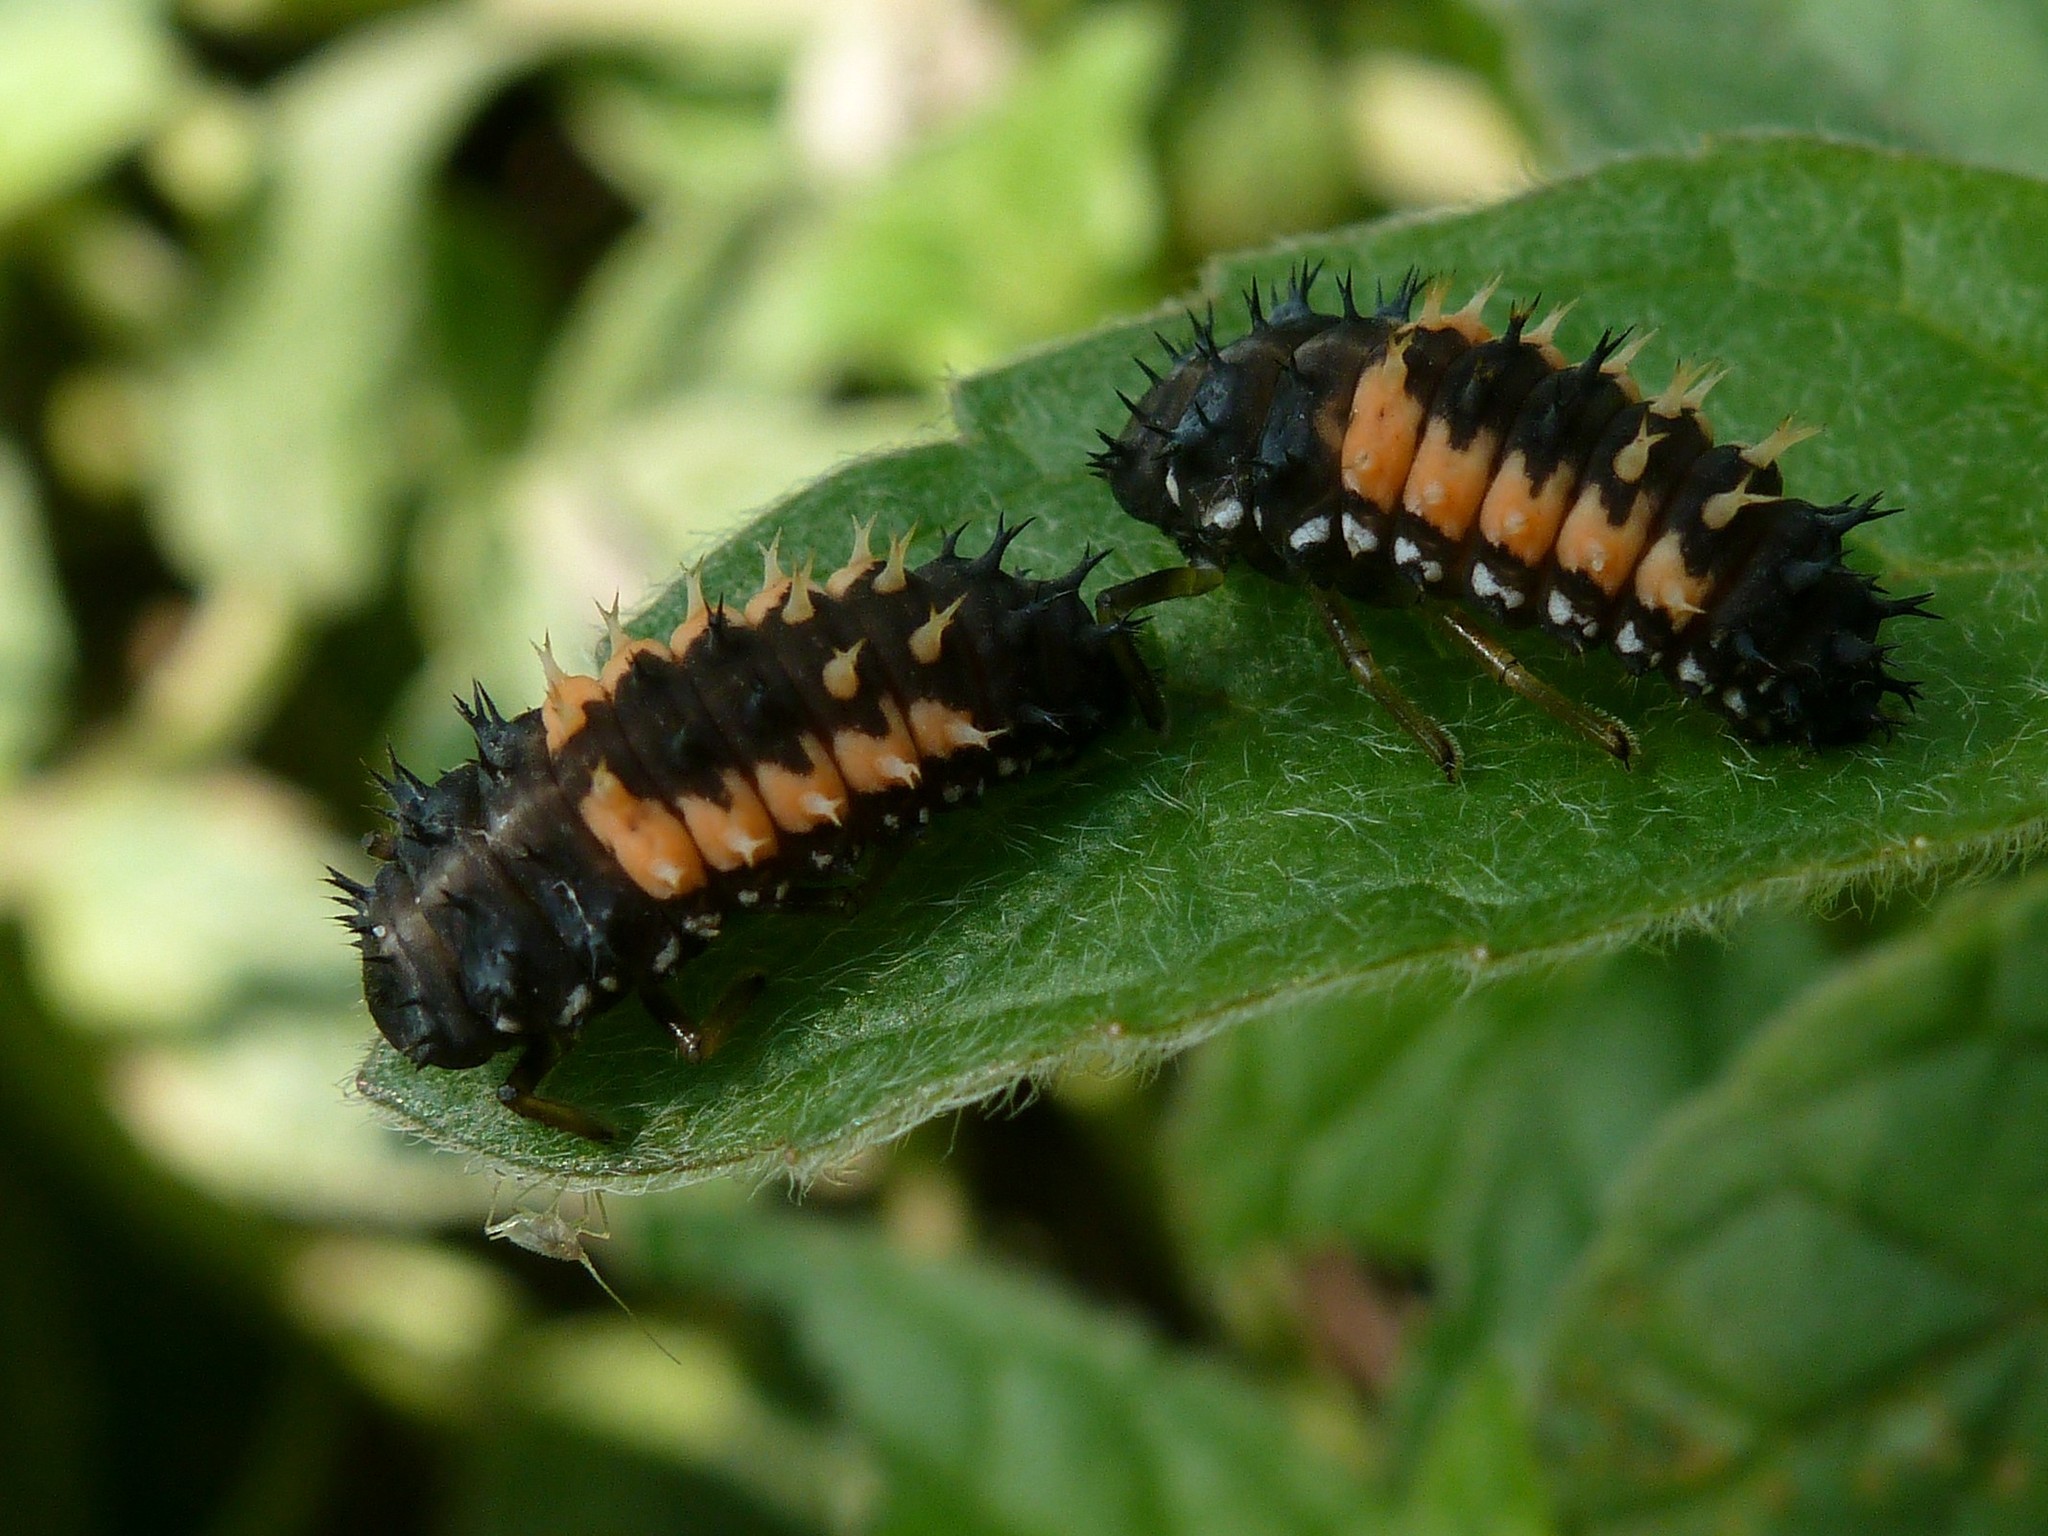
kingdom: Animalia
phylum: Arthropoda
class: Insecta
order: Coleoptera
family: Coccinellidae
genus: Harmonia
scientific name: Harmonia axyridis
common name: Harlequin ladybird
